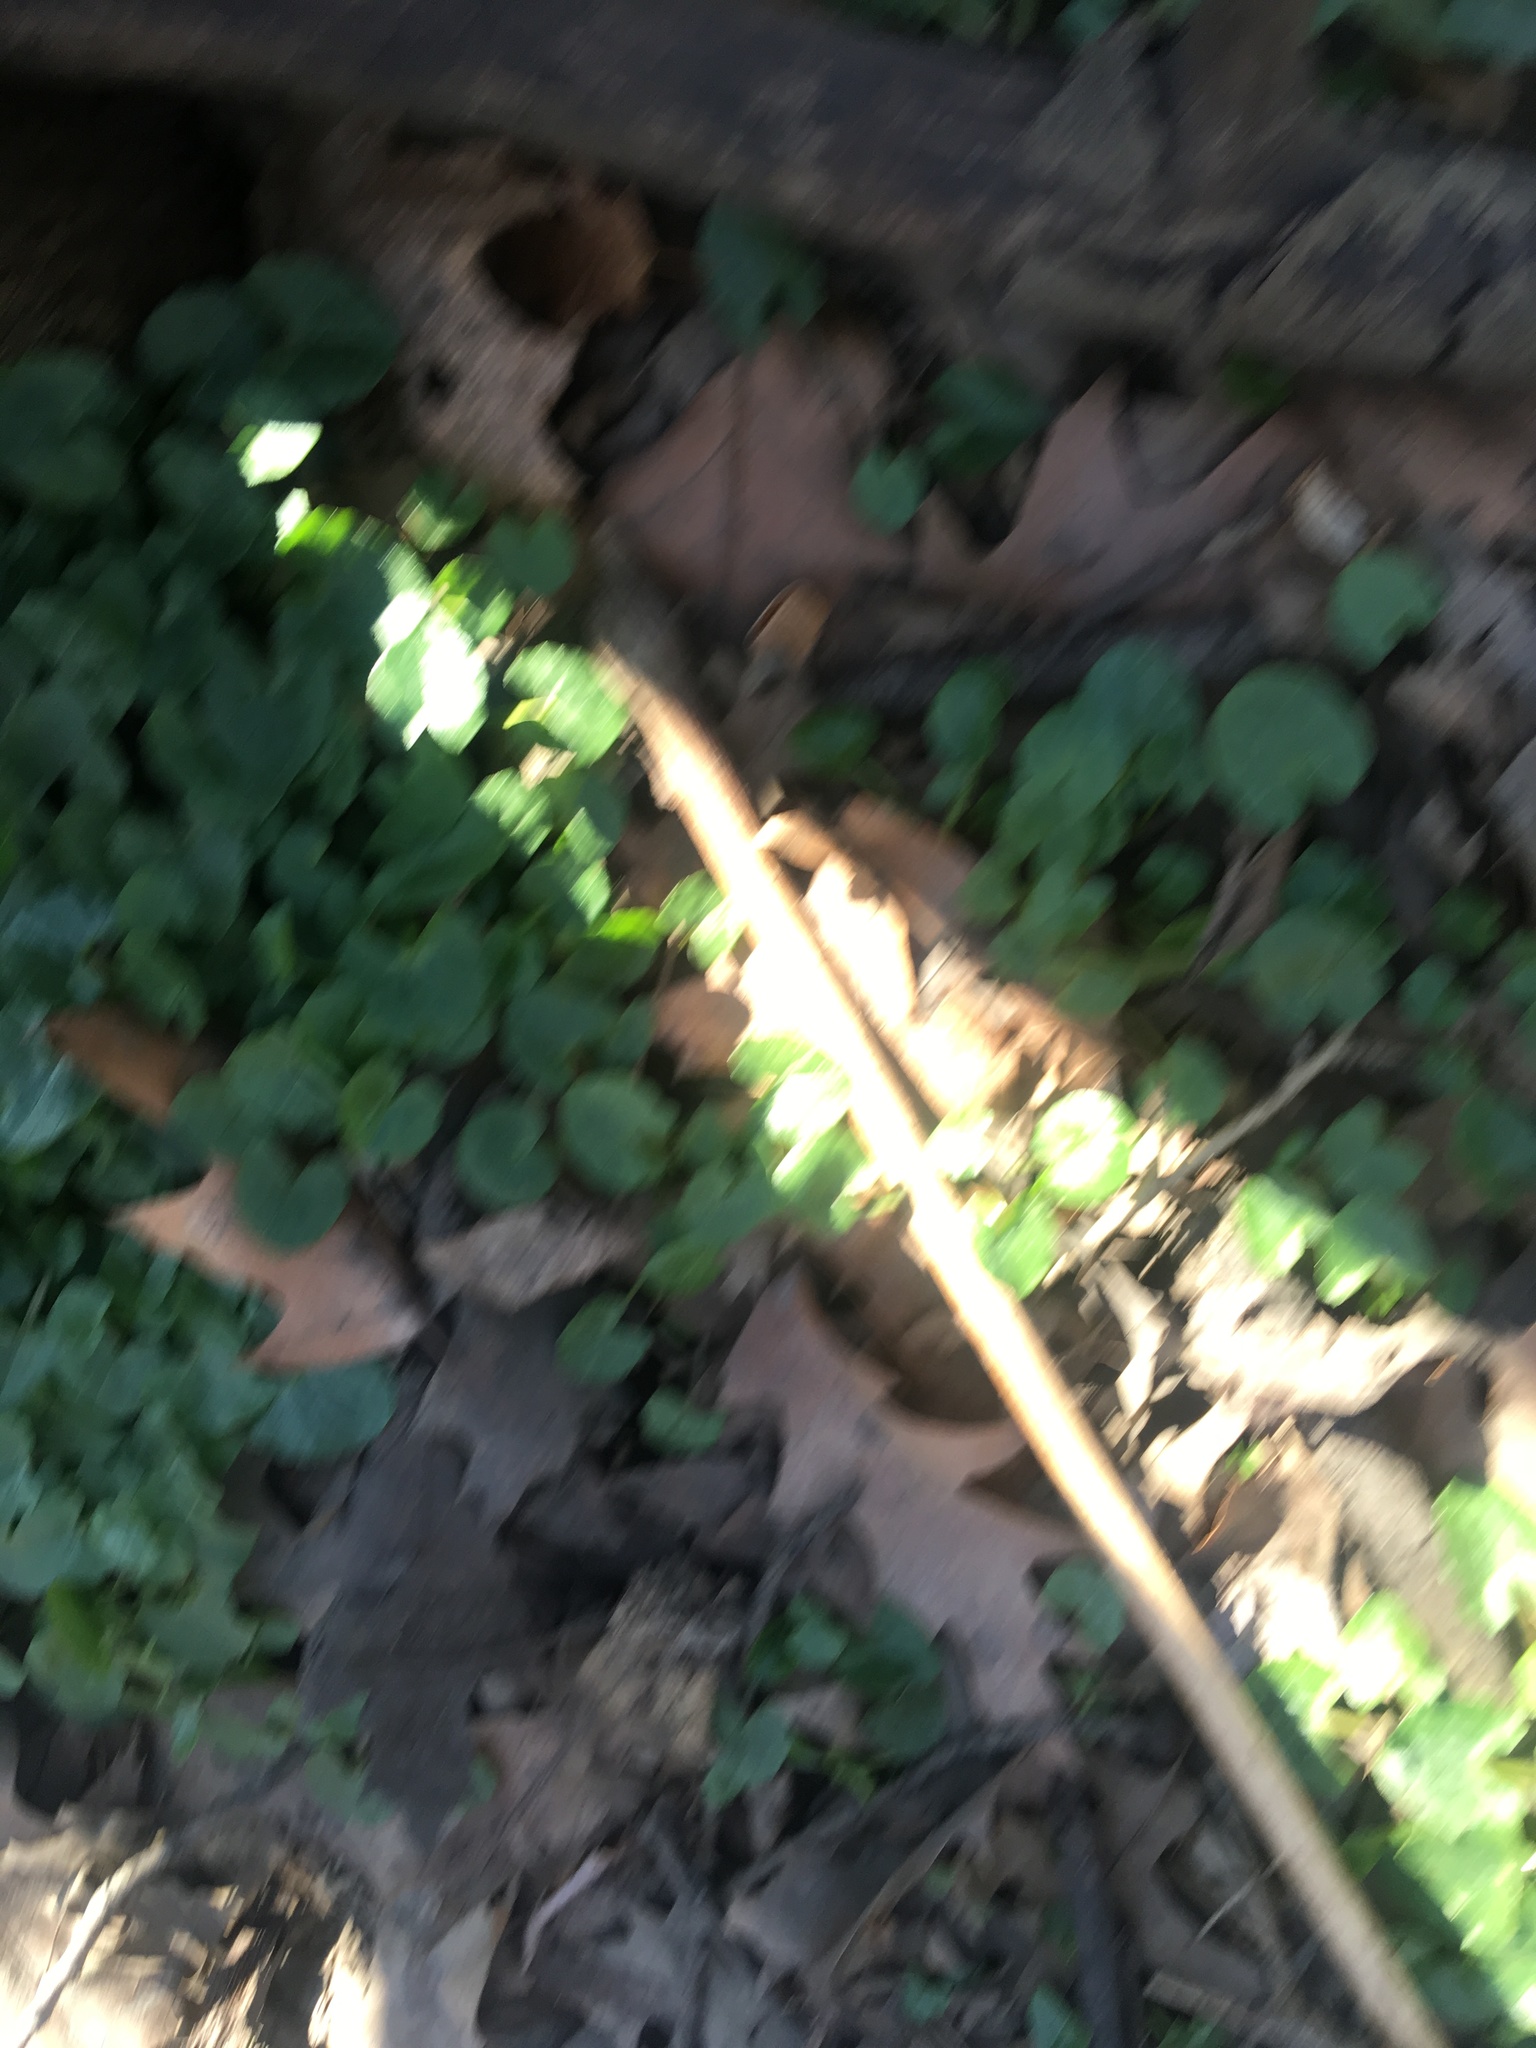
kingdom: Plantae
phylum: Tracheophyta
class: Magnoliopsida
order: Ranunculales
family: Ranunculaceae
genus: Ficaria
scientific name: Ficaria verna
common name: Lesser celandine
